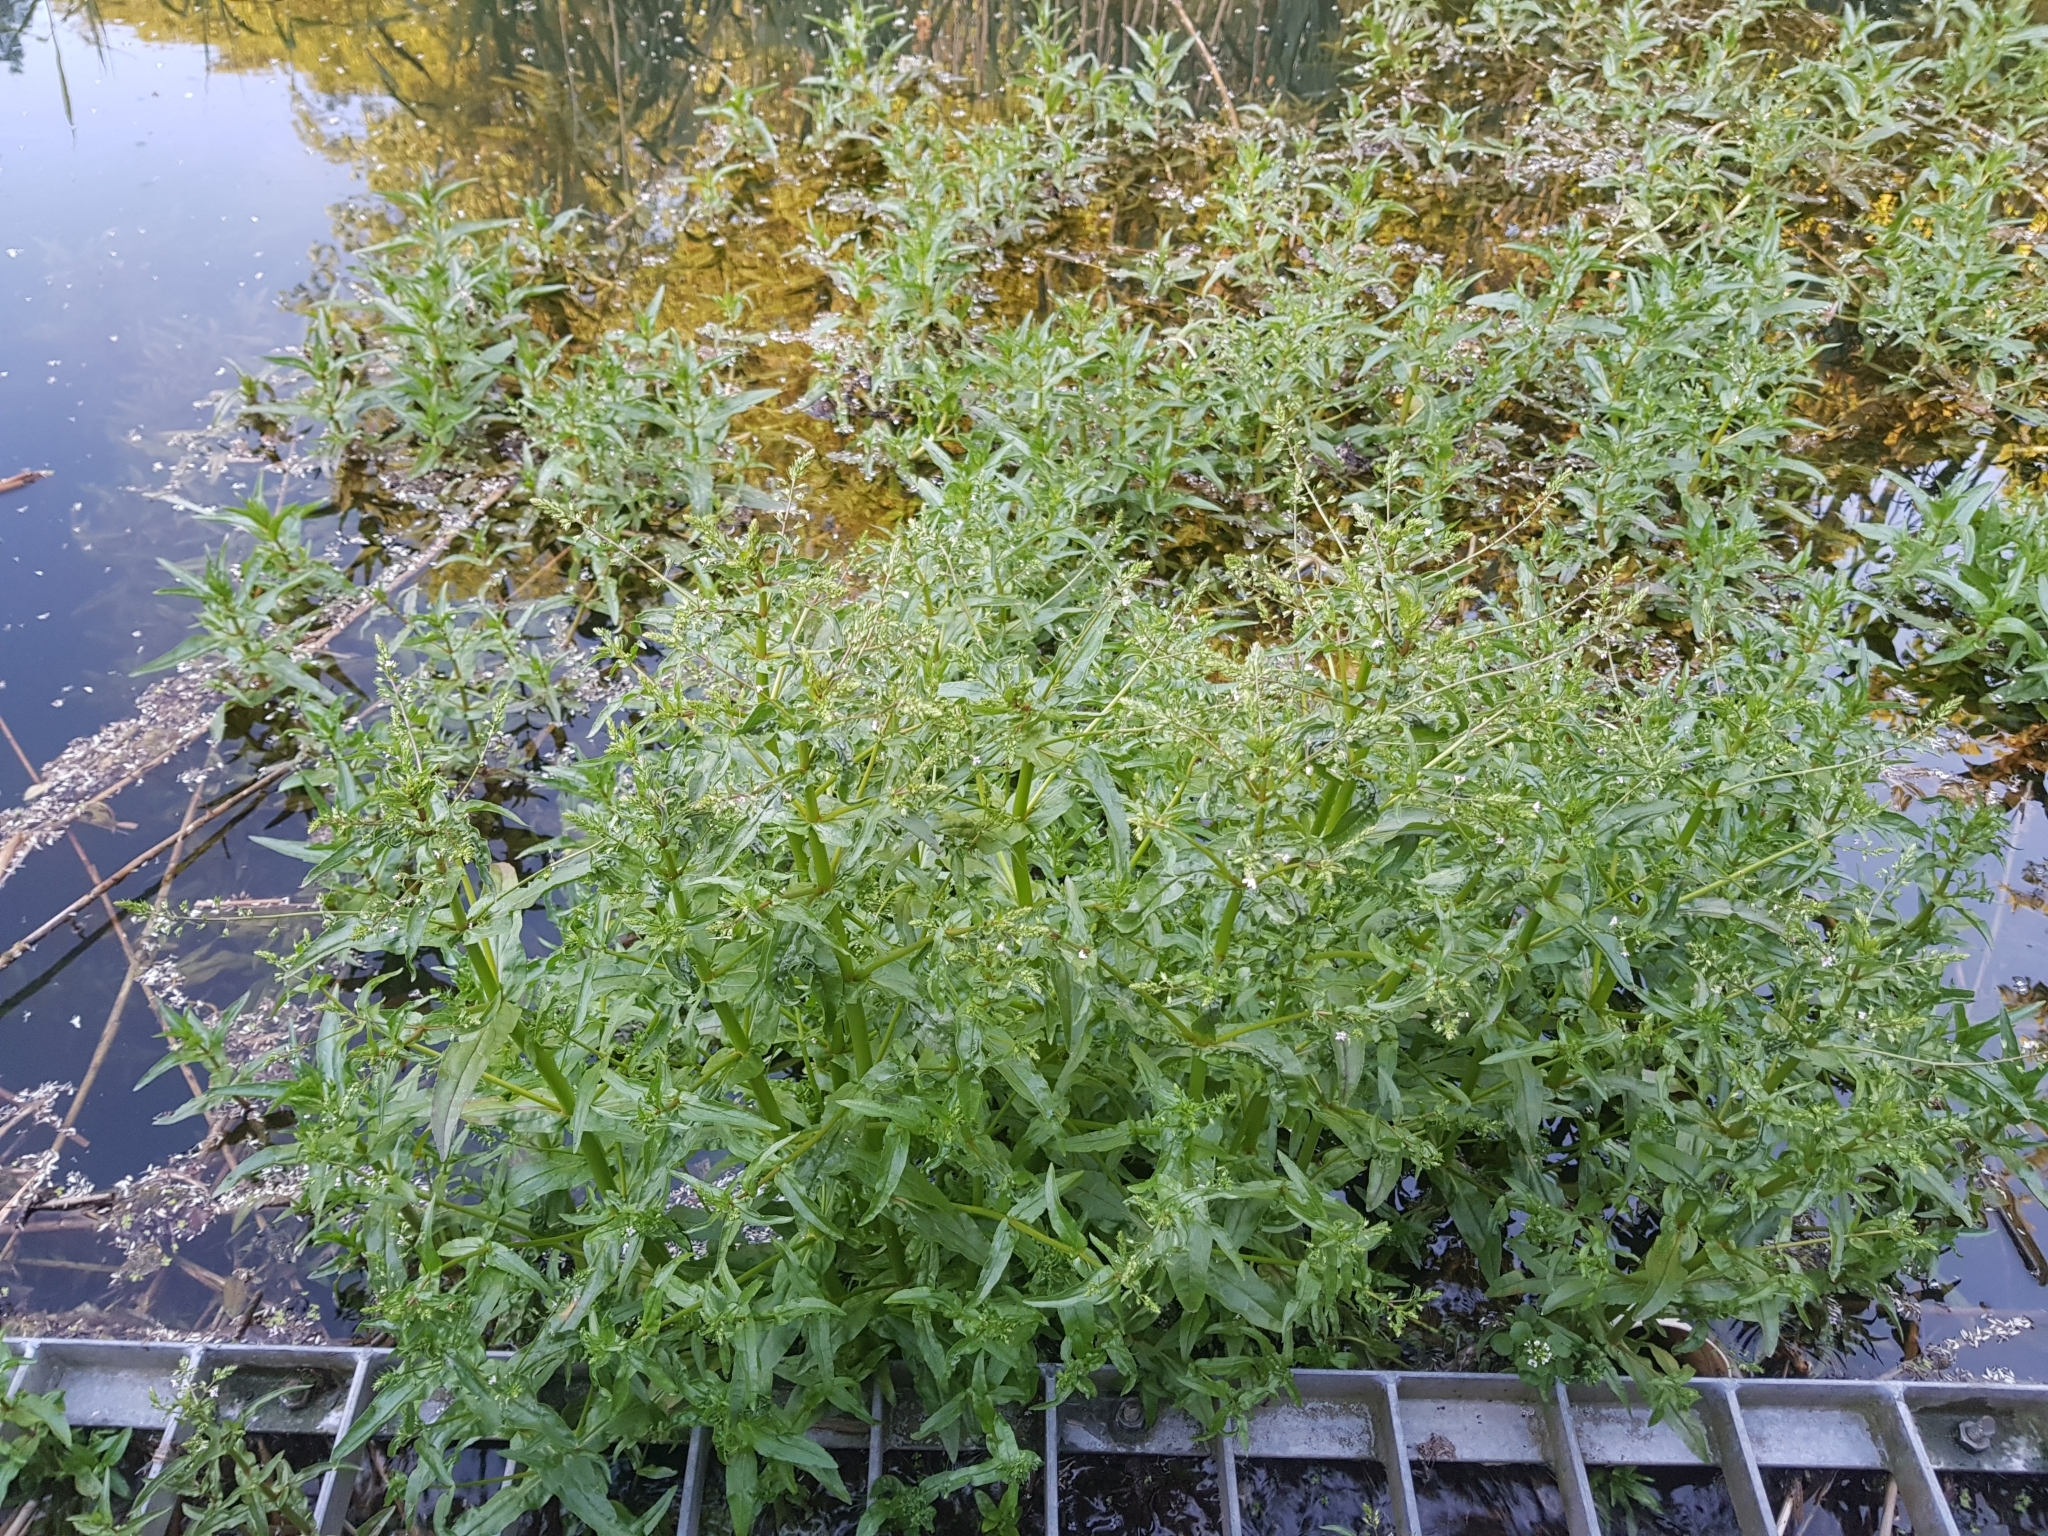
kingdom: Plantae
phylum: Tracheophyta
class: Magnoliopsida
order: Lamiales
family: Plantaginaceae
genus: Veronica
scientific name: Veronica anagallis-aquatica
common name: Water speedwell
